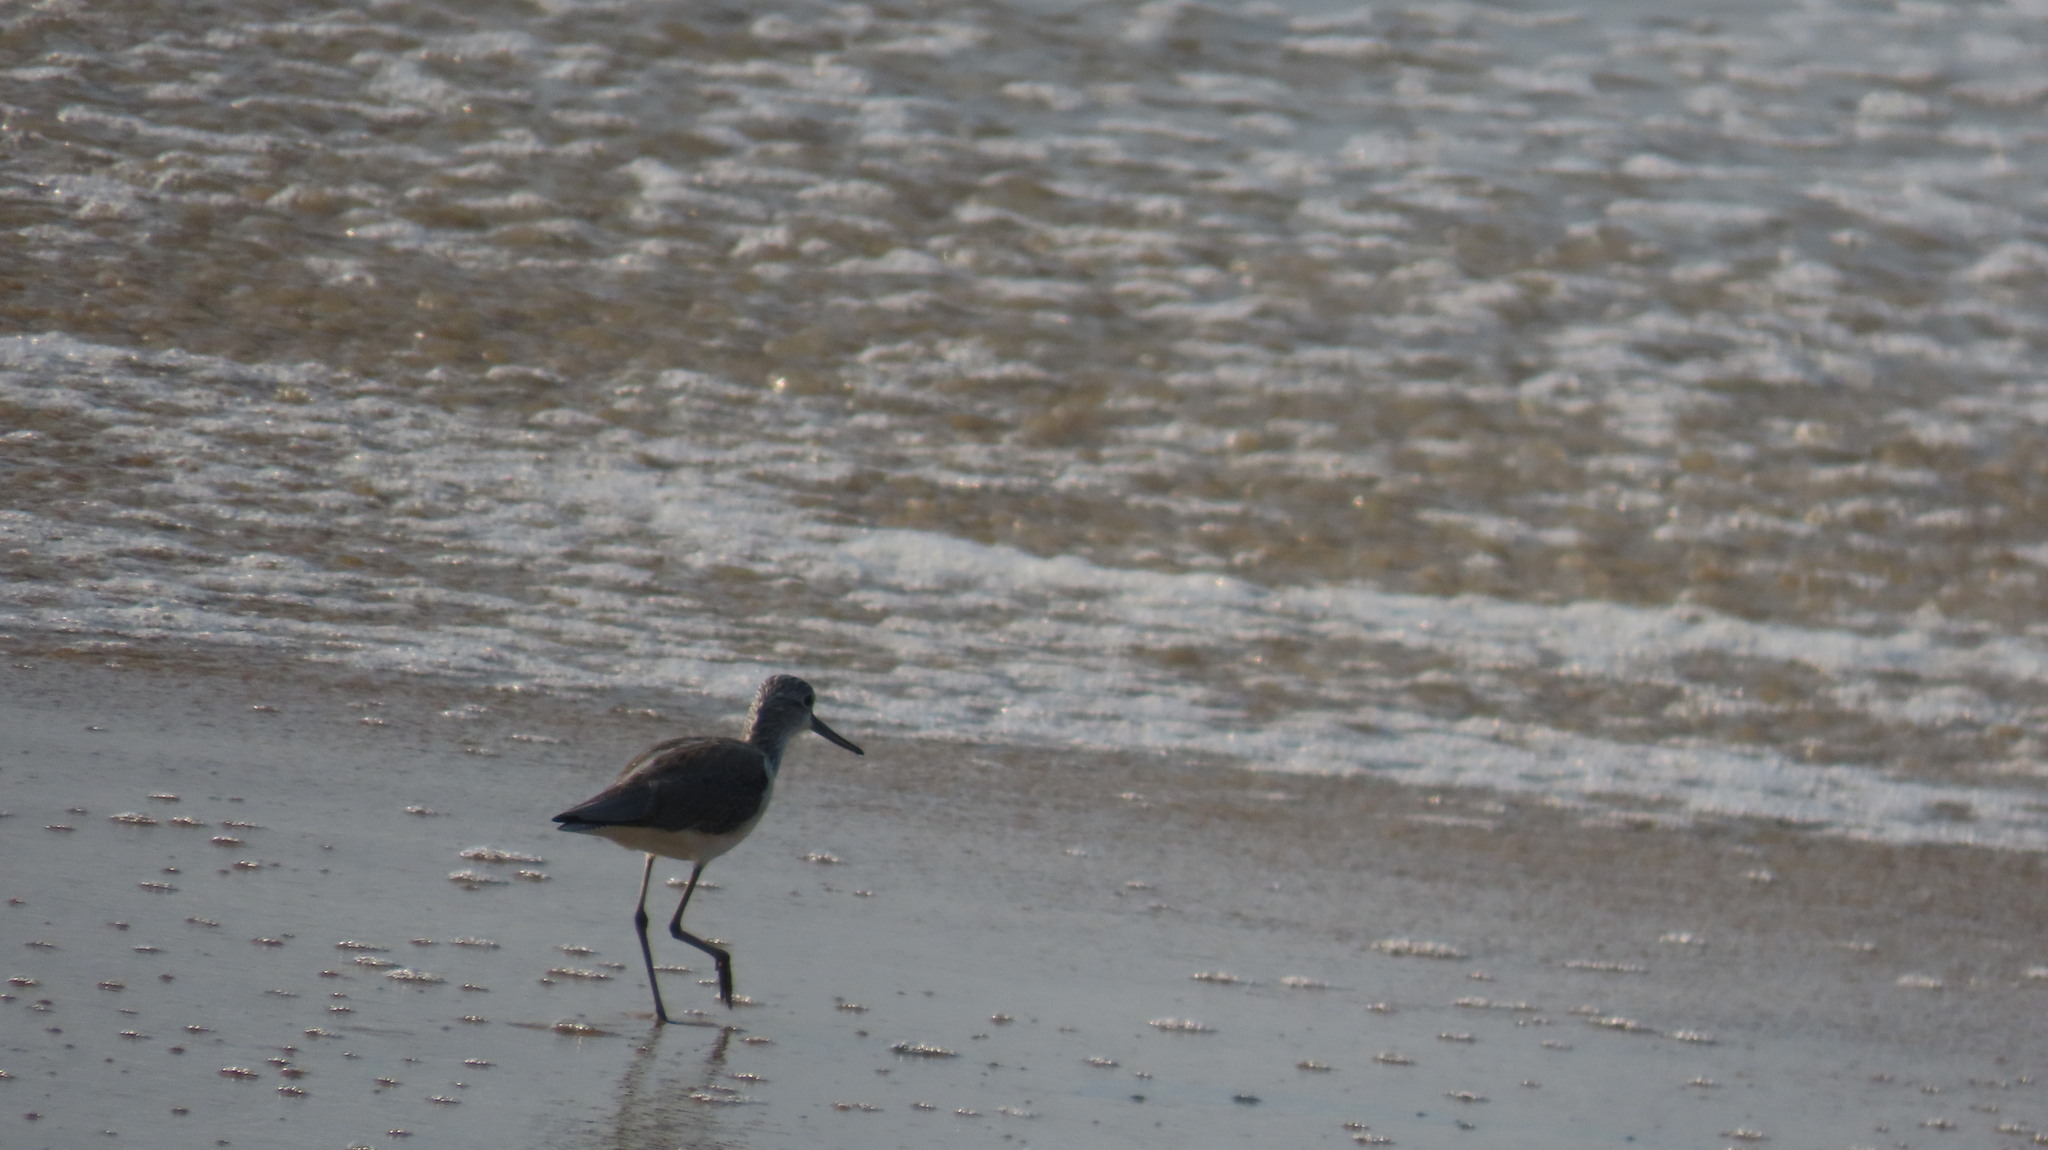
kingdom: Animalia
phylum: Chordata
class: Aves
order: Charadriiformes
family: Scolopacidae
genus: Tringa
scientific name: Tringa nebularia
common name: Common greenshank
